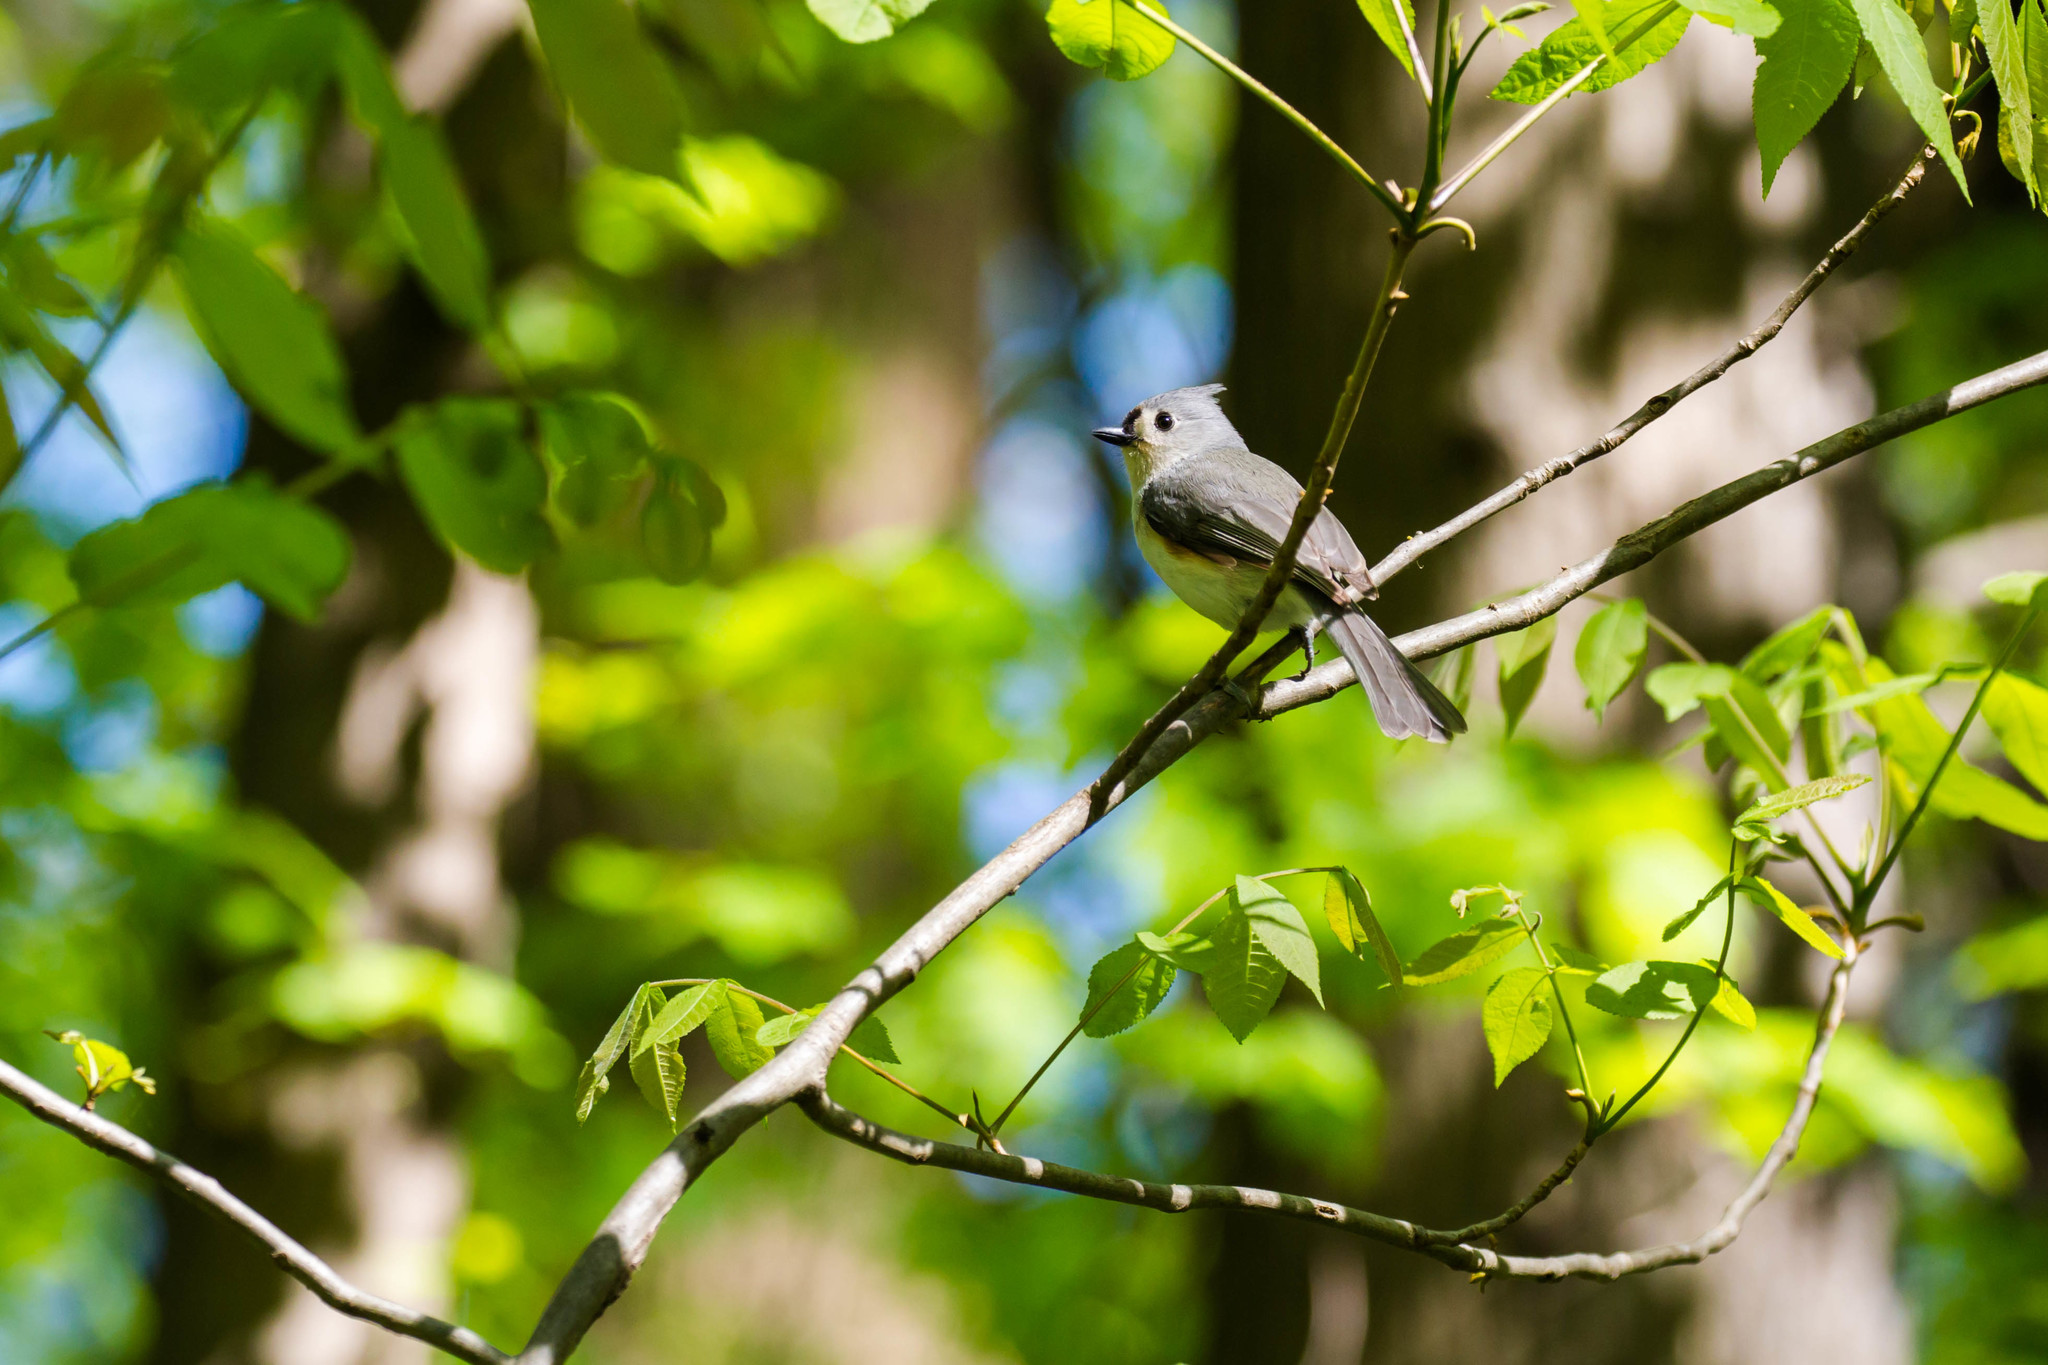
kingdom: Animalia
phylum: Chordata
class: Aves
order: Passeriformes
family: Paridae
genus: Baeolophus
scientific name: Baeolophus bicolor
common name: Tufted titmouse
